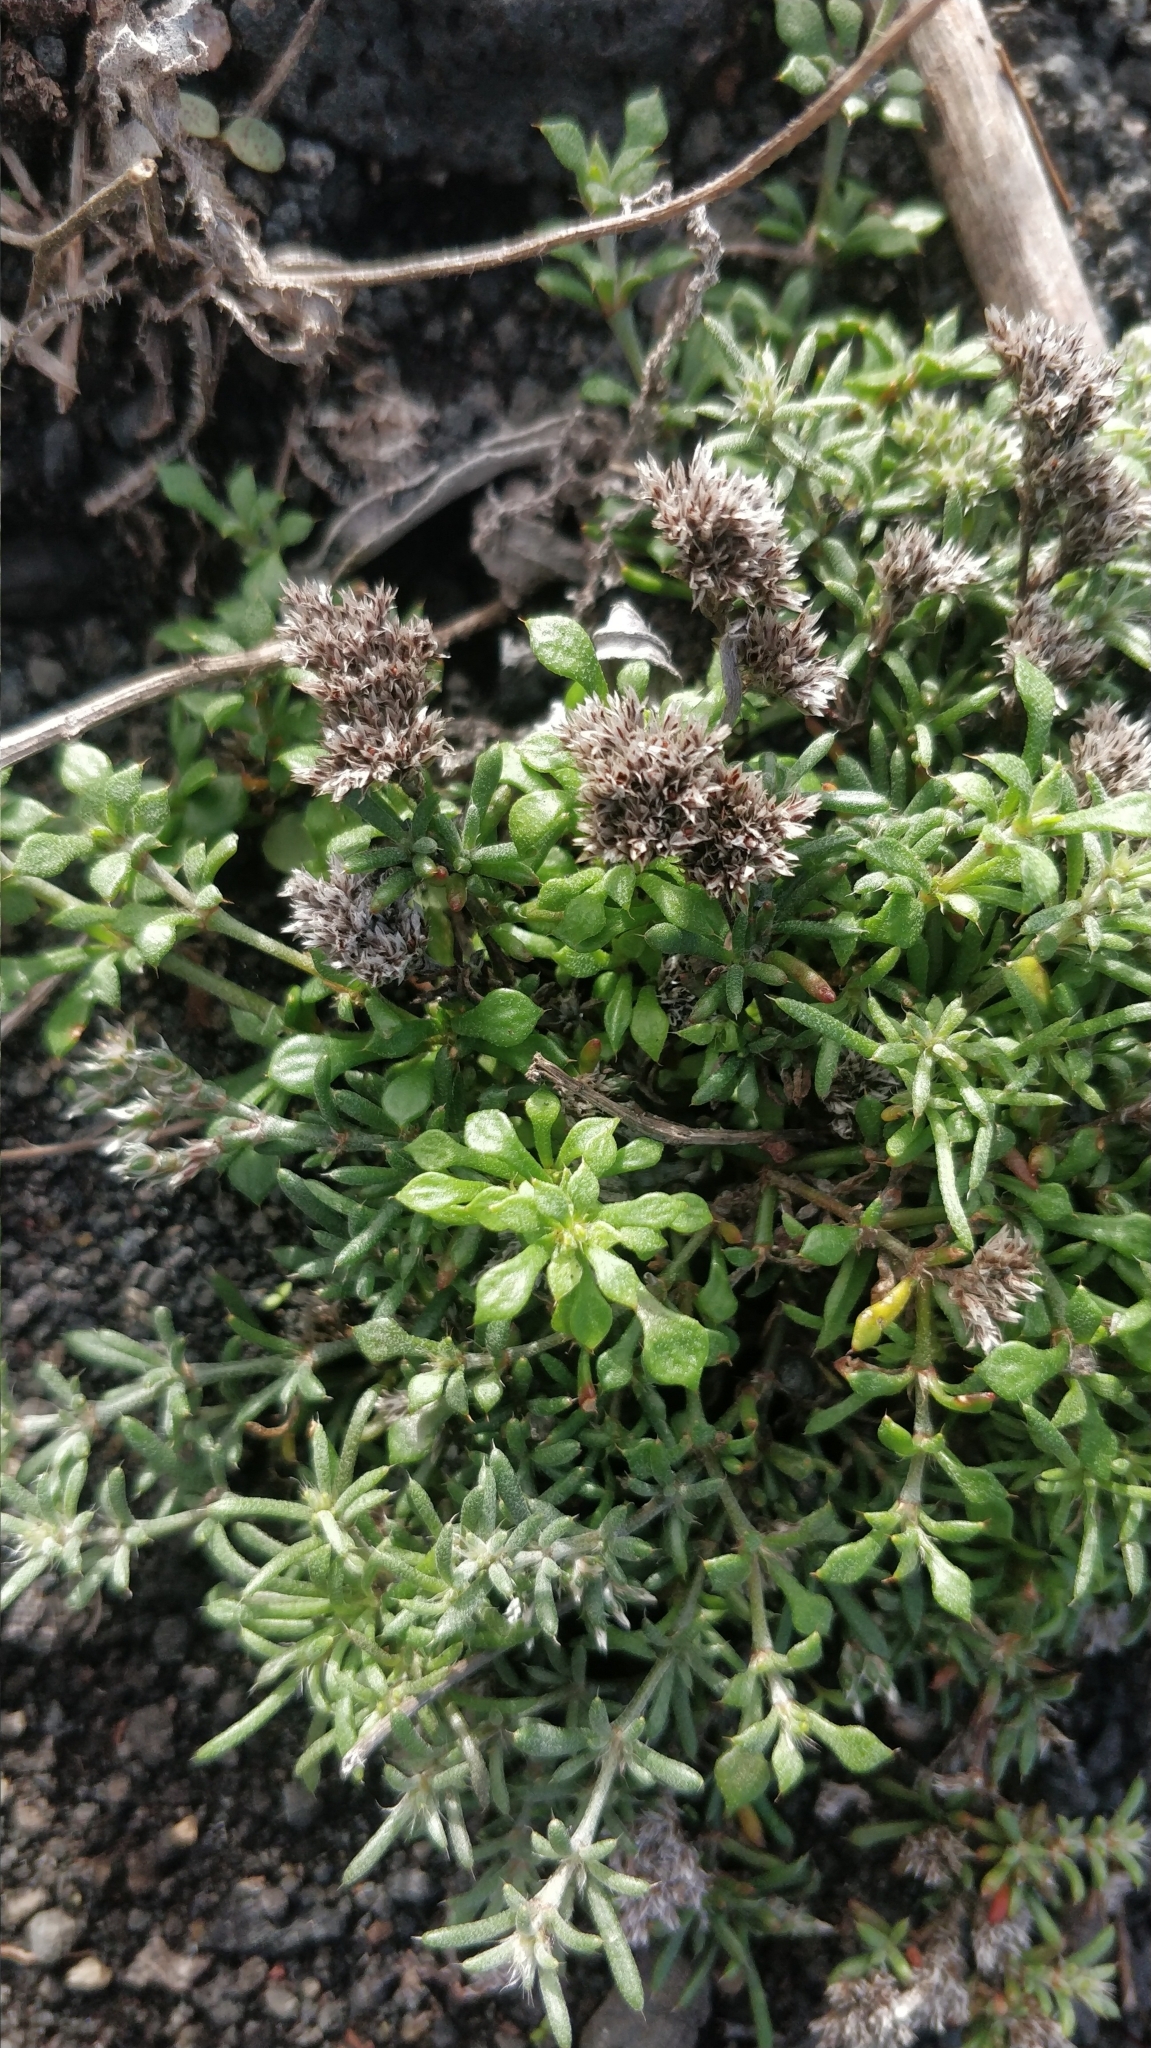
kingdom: Plantae
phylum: Tracheophyta
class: Magnoliopsida
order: Caryophyllales
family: Caryophyllaceae
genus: Polycarpaea
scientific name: Polycarpaea divaricata
